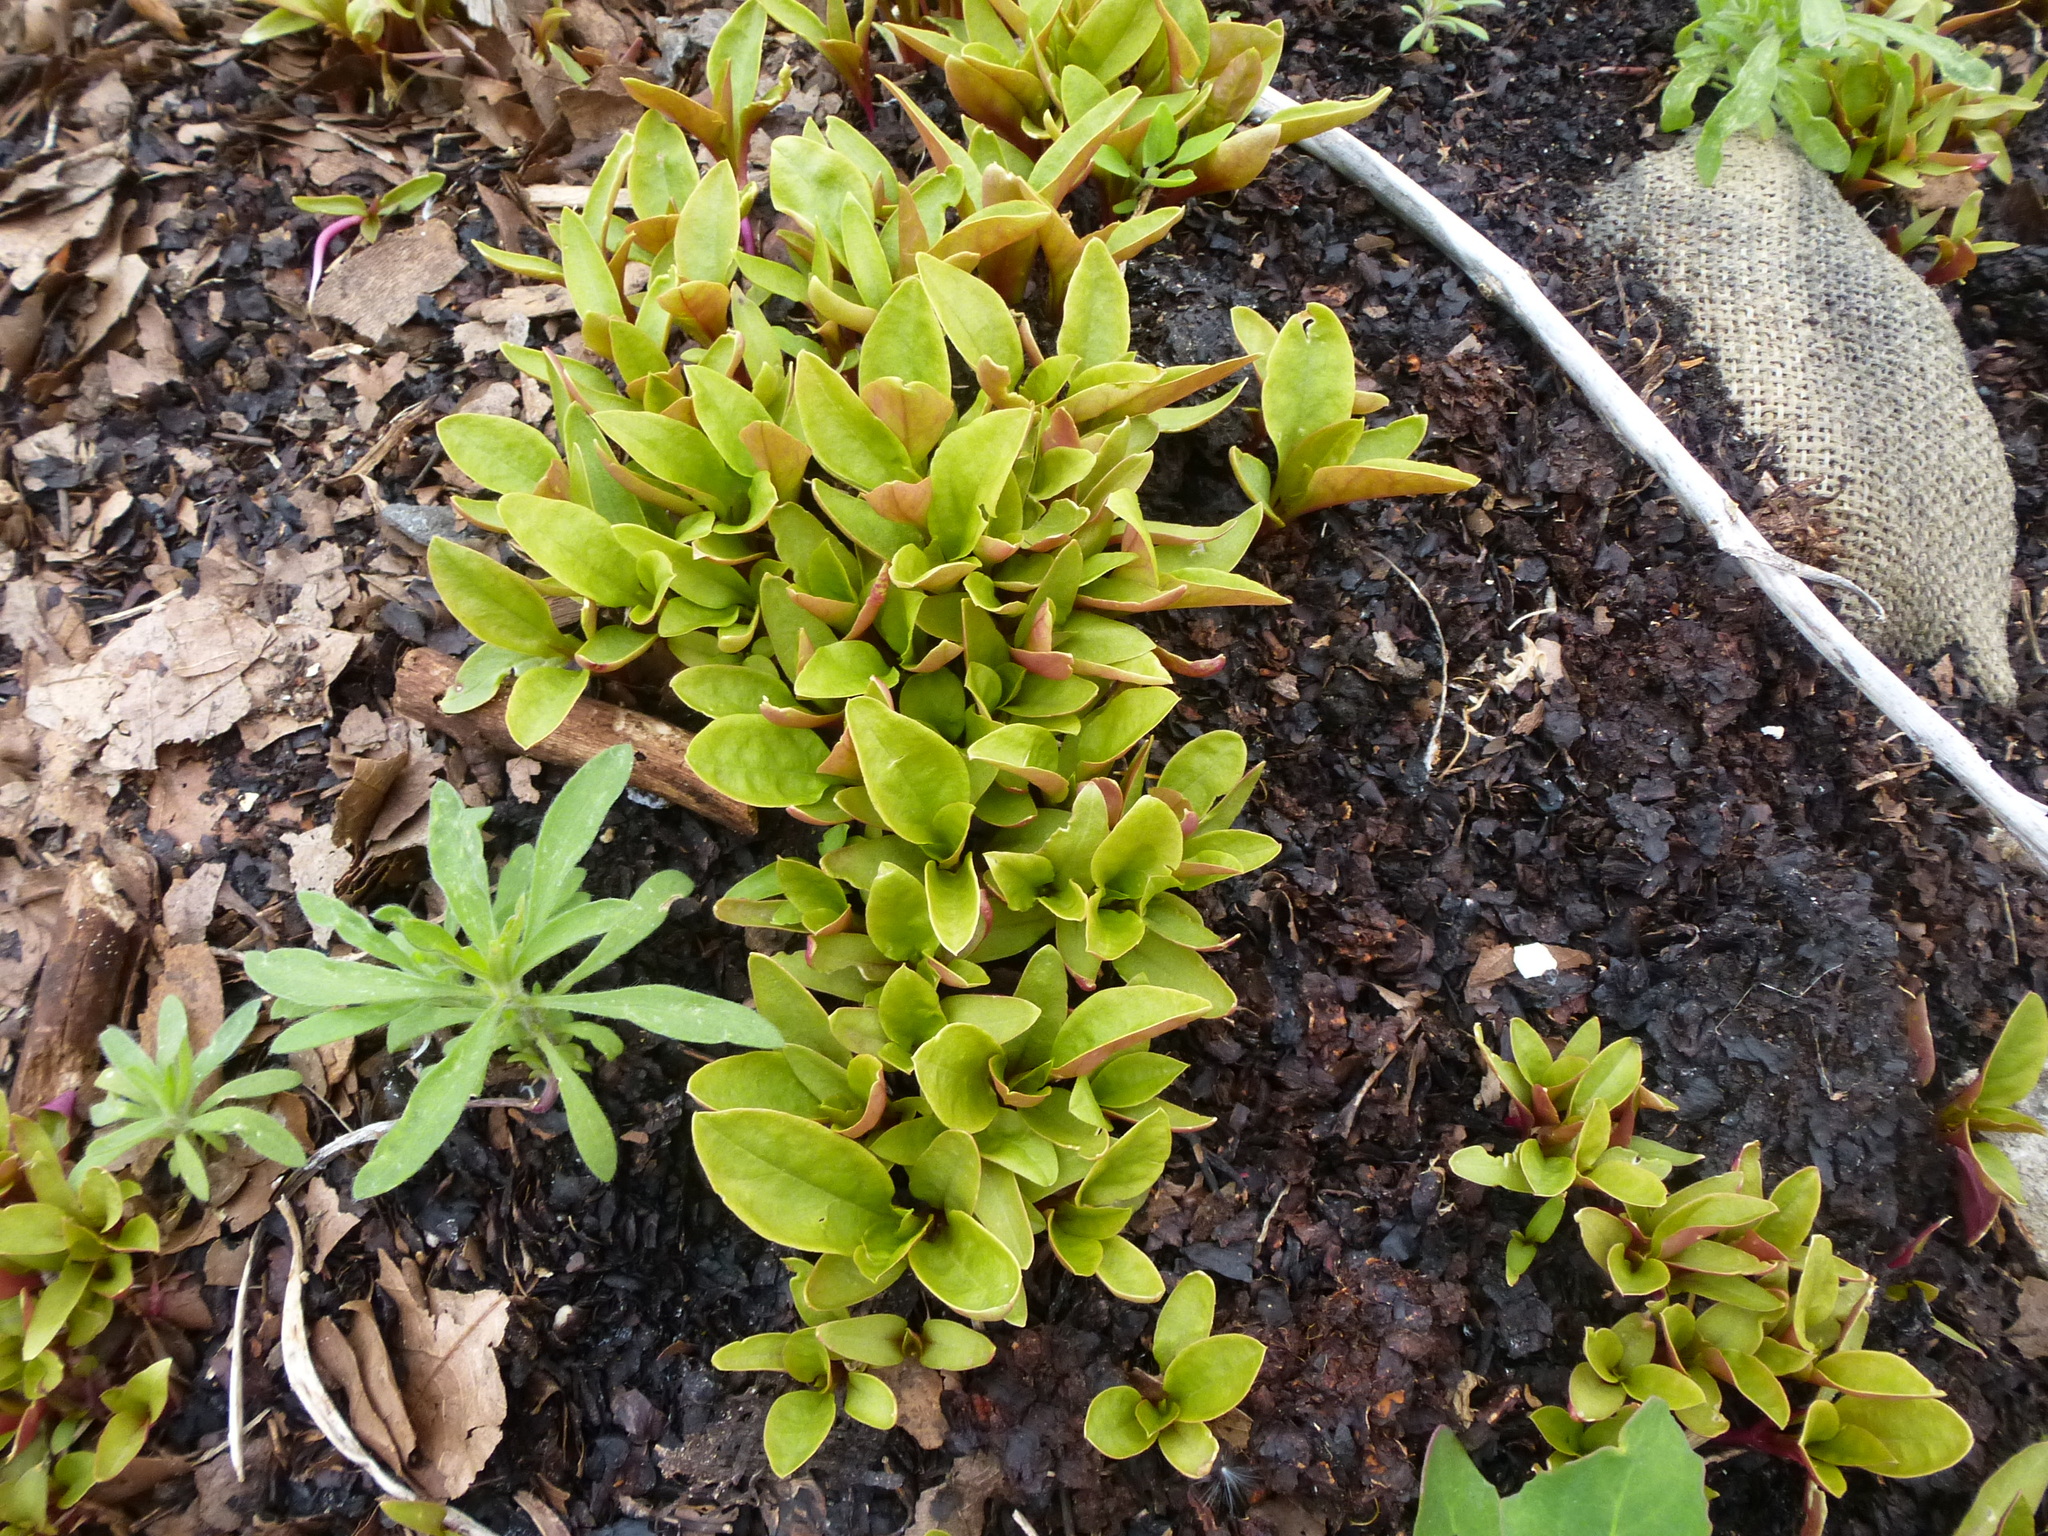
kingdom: Plantae
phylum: Tracheophyta
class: Magnoliopsida
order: Caryophyllales
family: Phytolaccaceae
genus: Phytolacca
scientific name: Phytolacca americana
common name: American pokeweed
